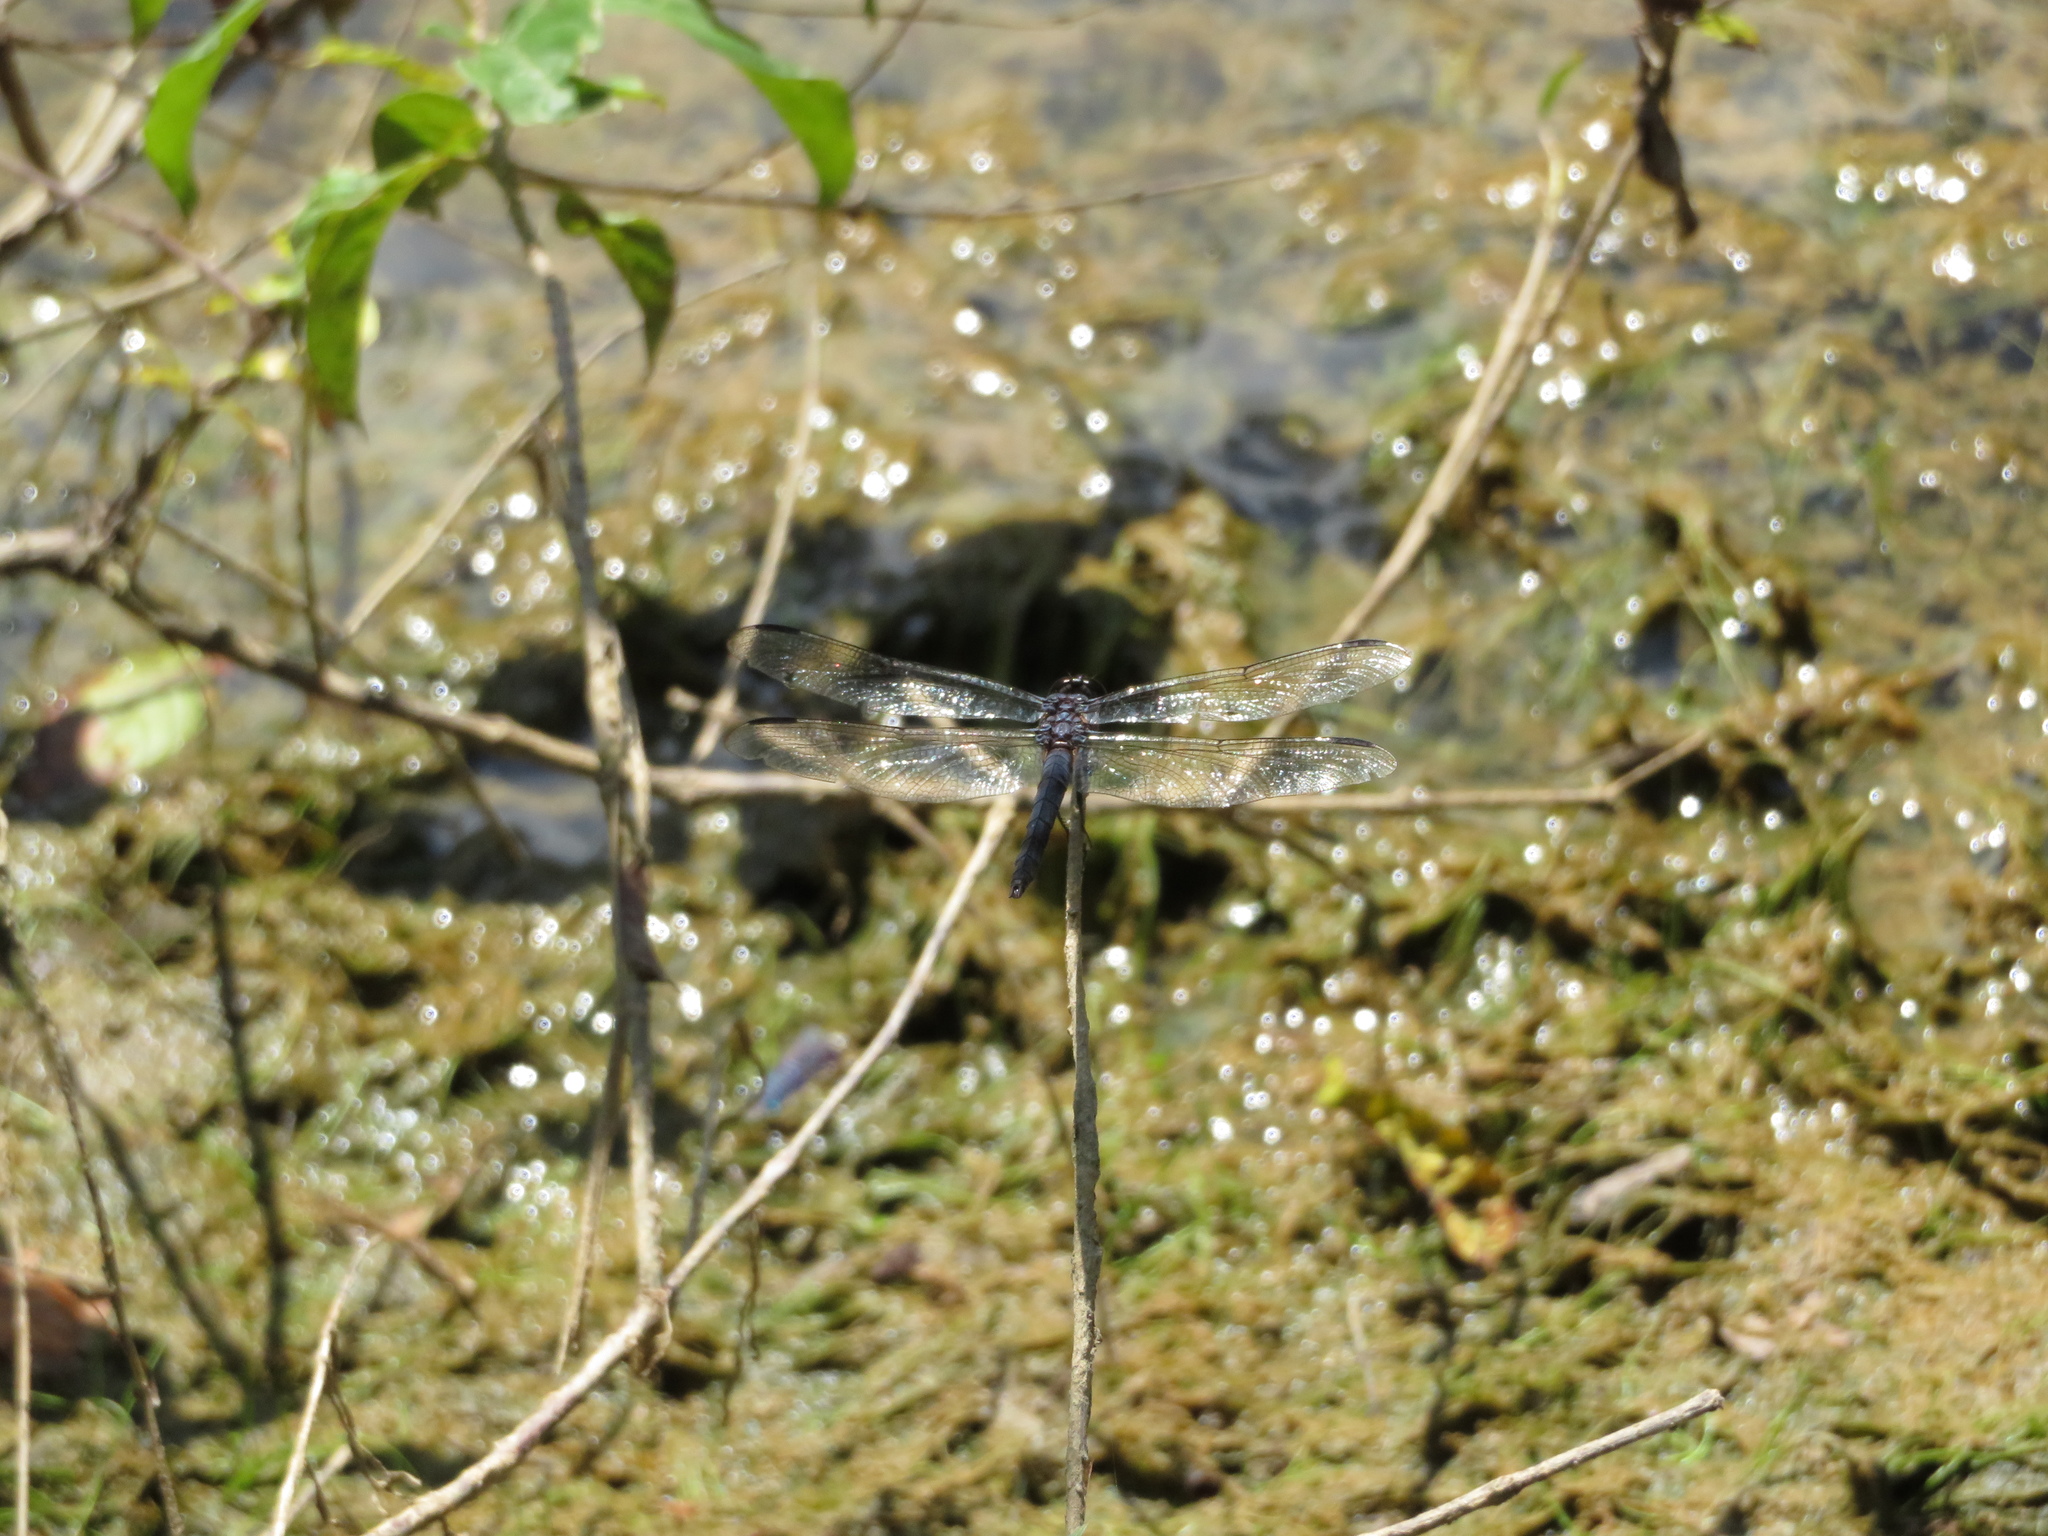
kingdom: Animalia
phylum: Arthropoda
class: Insecta
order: Odonata
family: Libellulidae
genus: Libellula
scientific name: Libellula incesta
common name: Slaty skimmer
